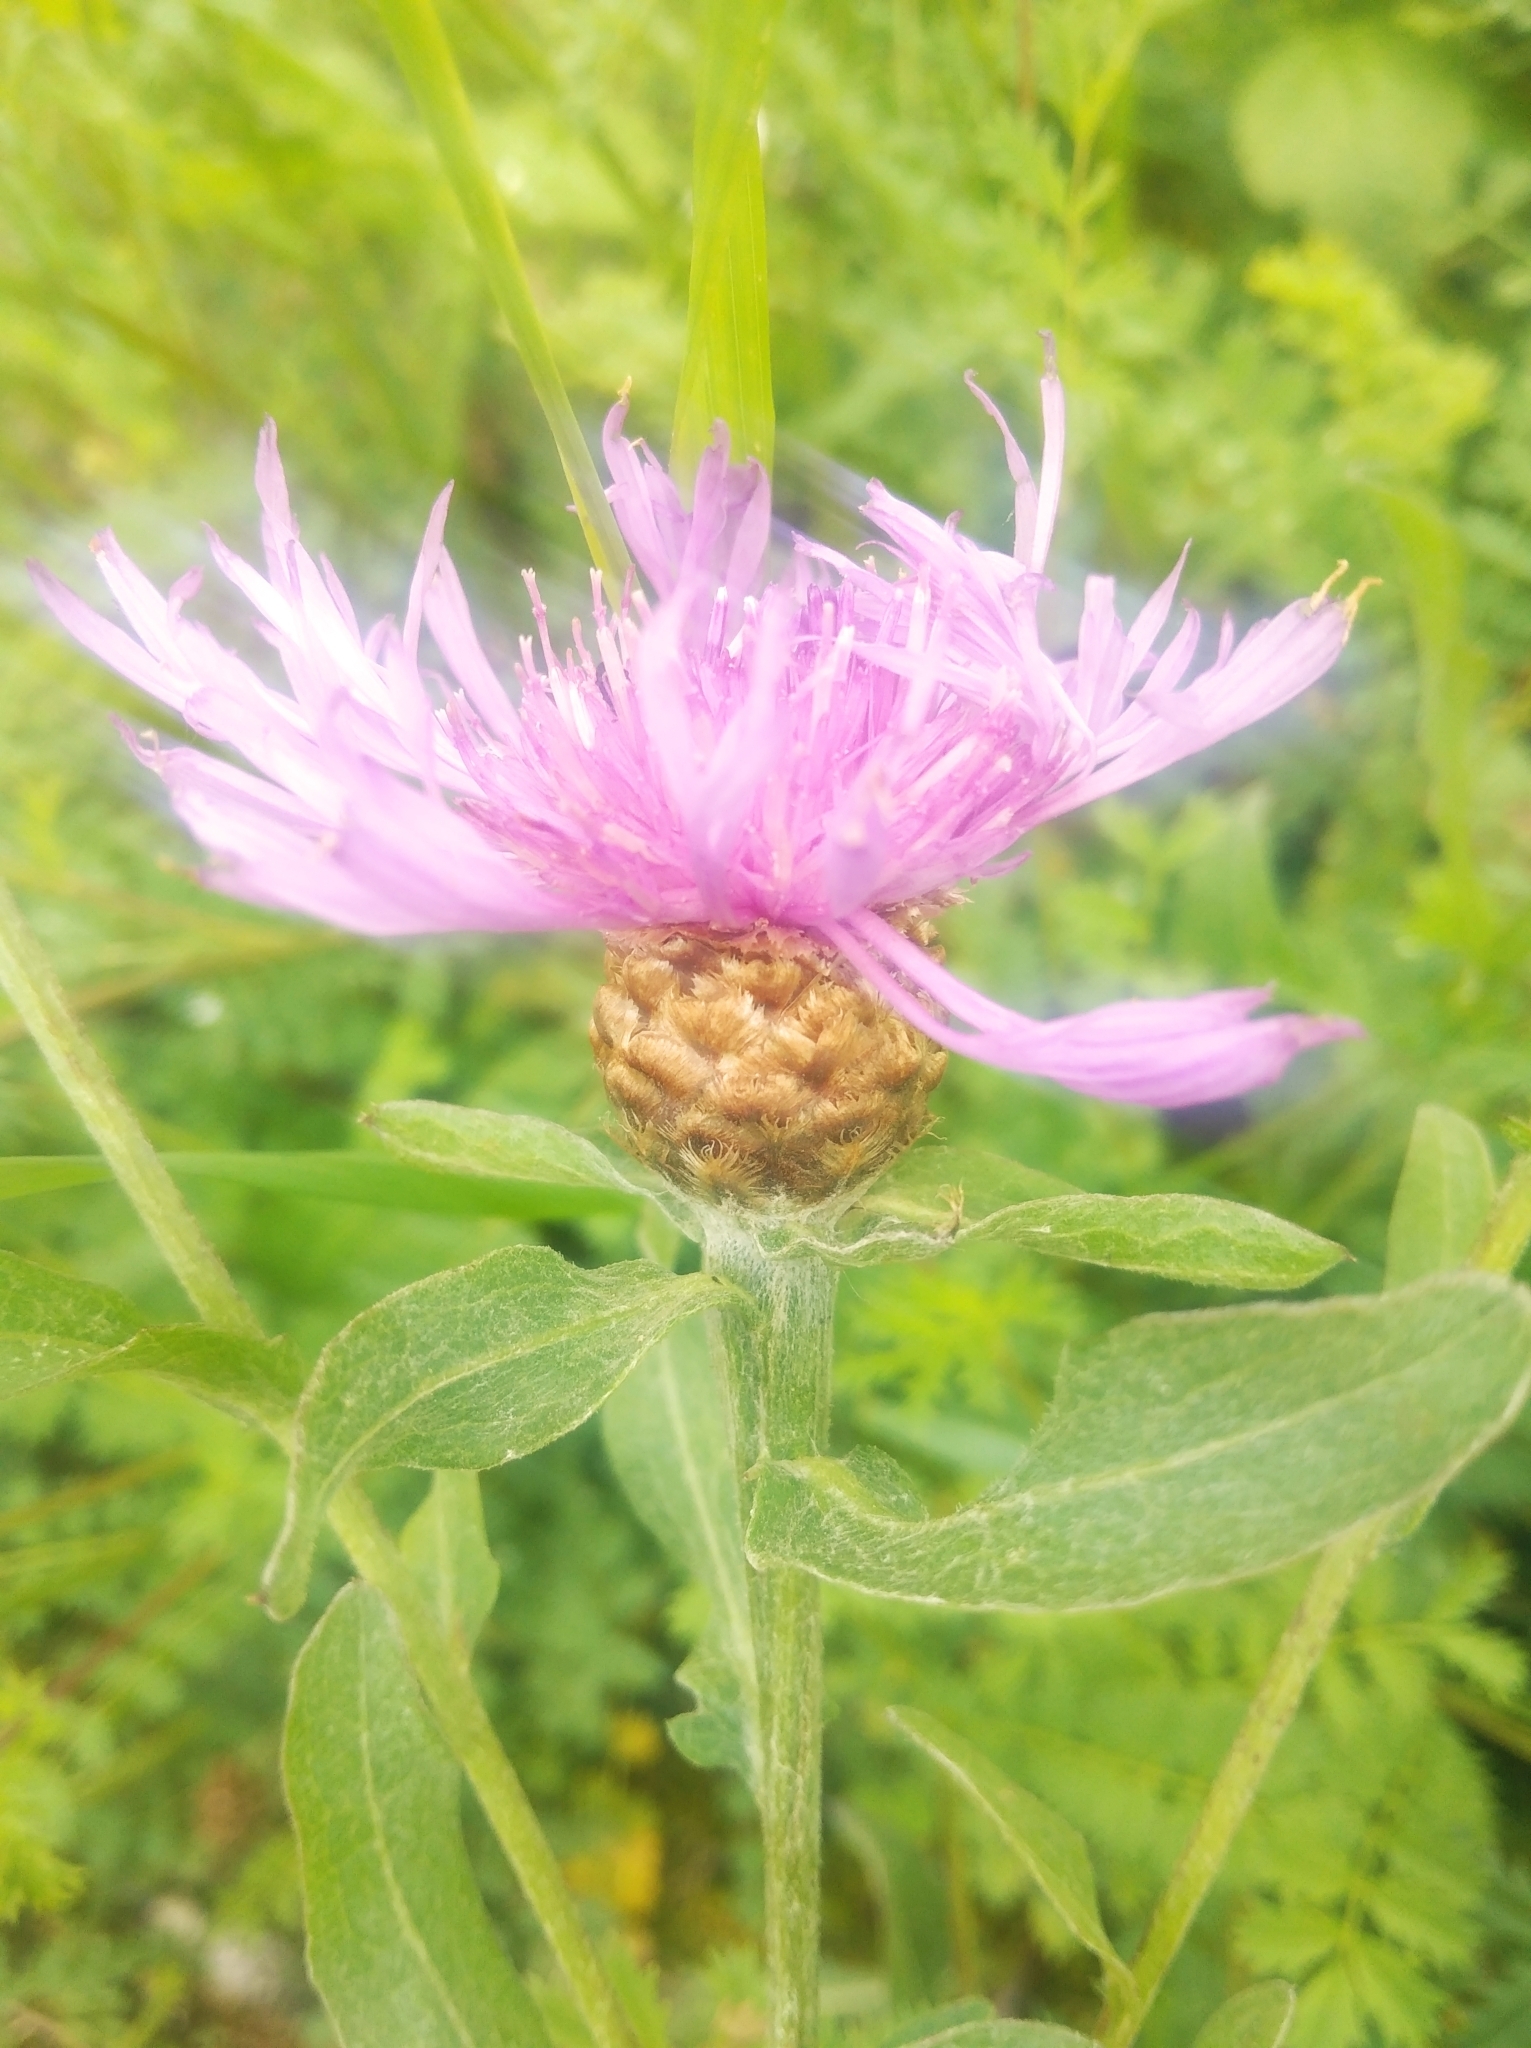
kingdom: Plantae
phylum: Tracheophyta
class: Magnoliopsida
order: Asterales
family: Asteraceae
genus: Centaurea
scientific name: Centaurea jacea
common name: Brown knapweed
